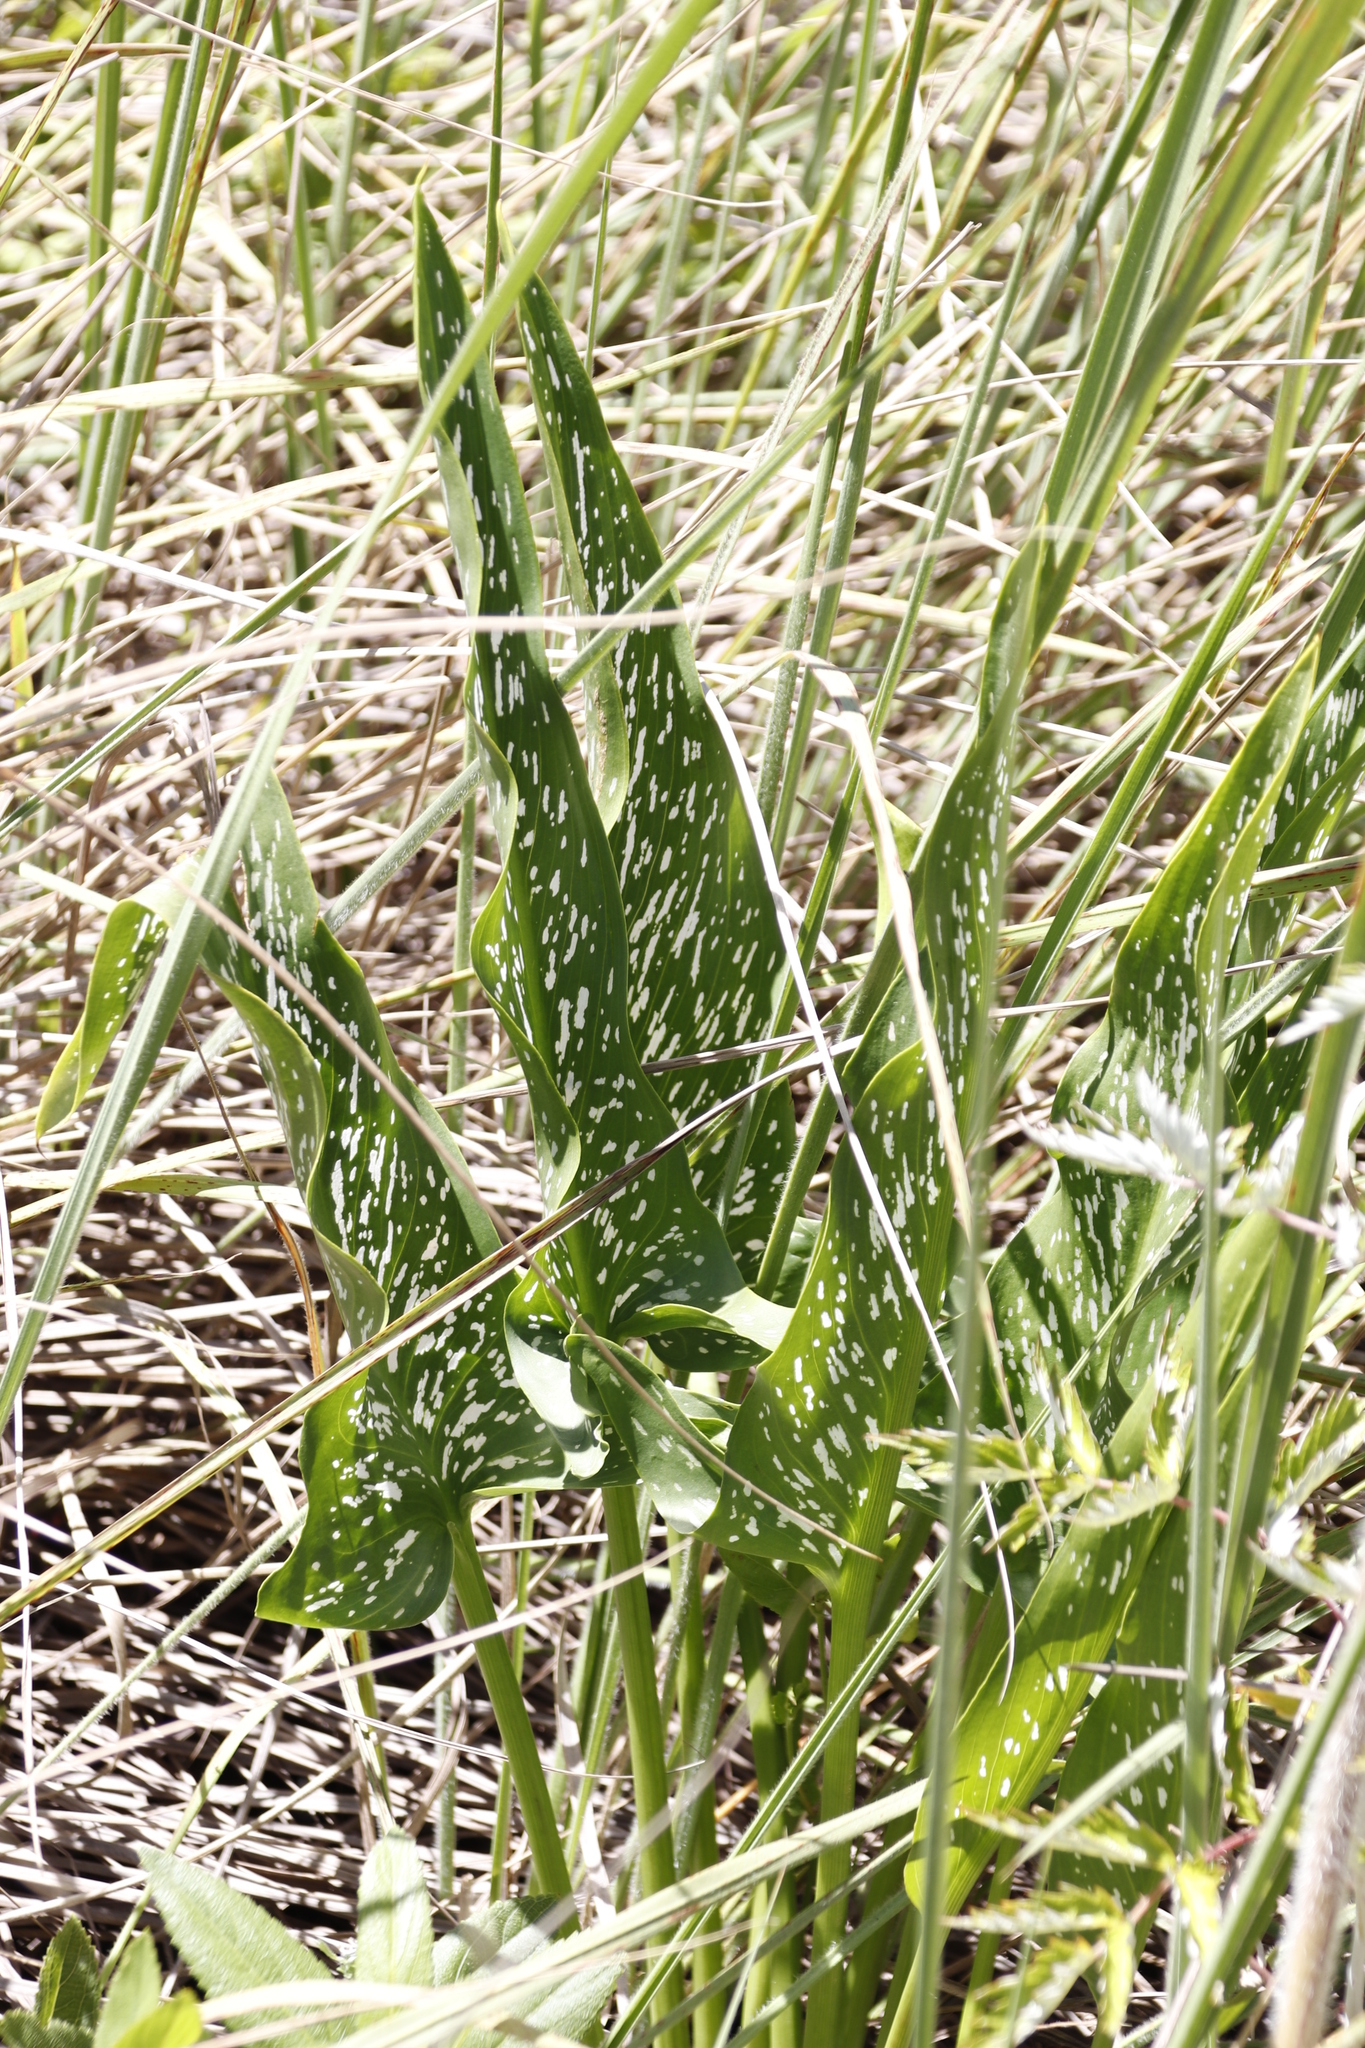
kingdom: Plantae
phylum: Tracheophyta
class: Liliopsida
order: Alismatales
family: Araceae
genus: Zantedeschia
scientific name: Zantedeschia albomaculata
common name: Spotted calla lily
